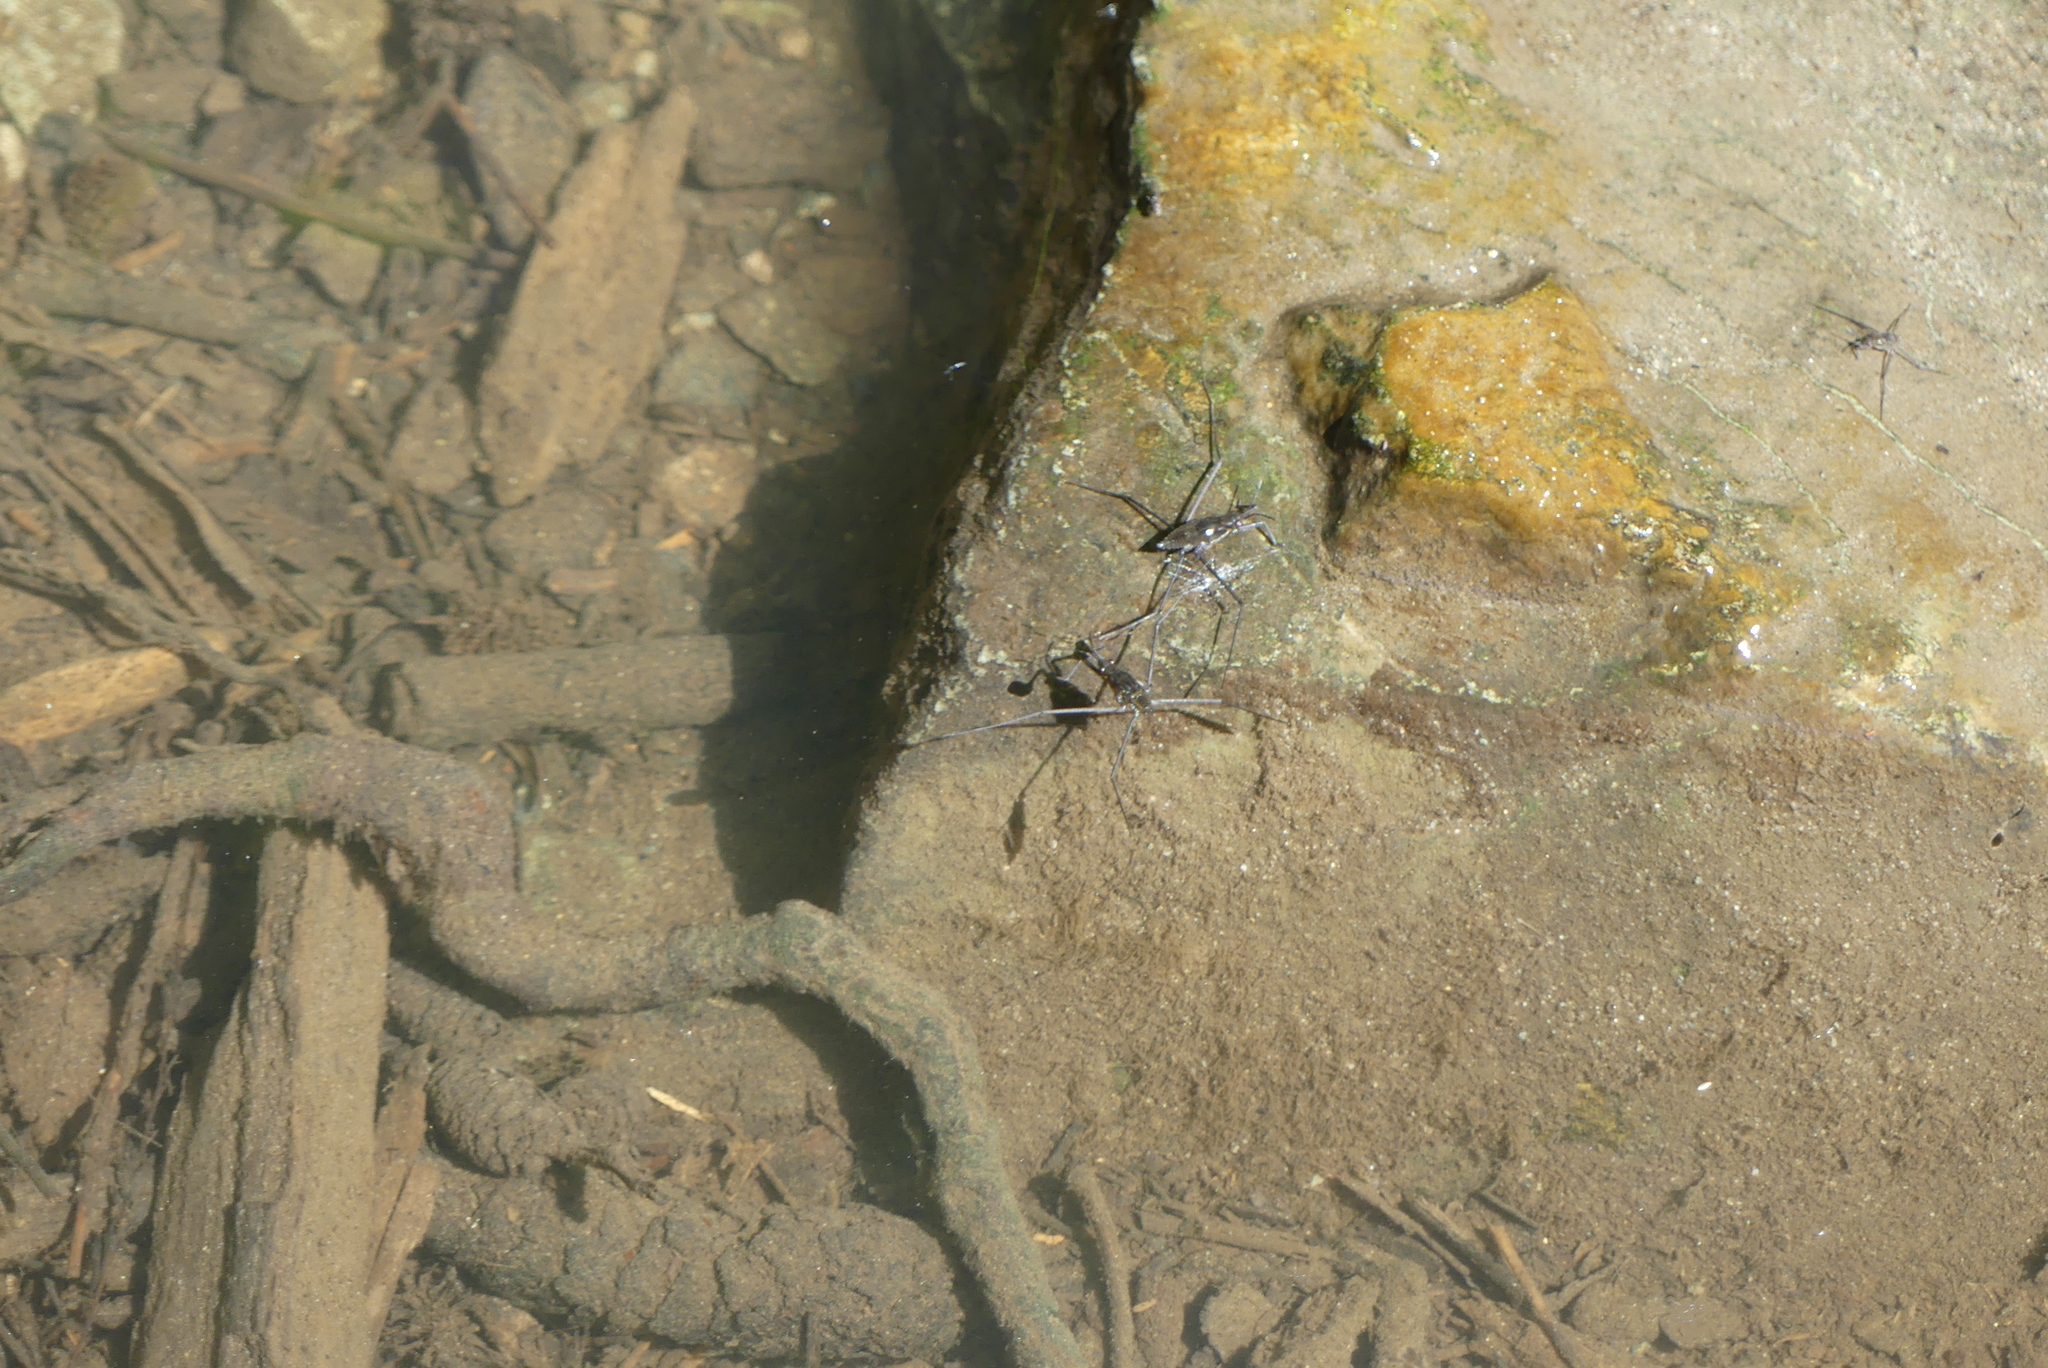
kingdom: Animalia
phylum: Arthropoda
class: Insecta
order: Hemiptera
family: Gerridae
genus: Aquarius
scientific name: Aquarius remigis
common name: Common water strider
